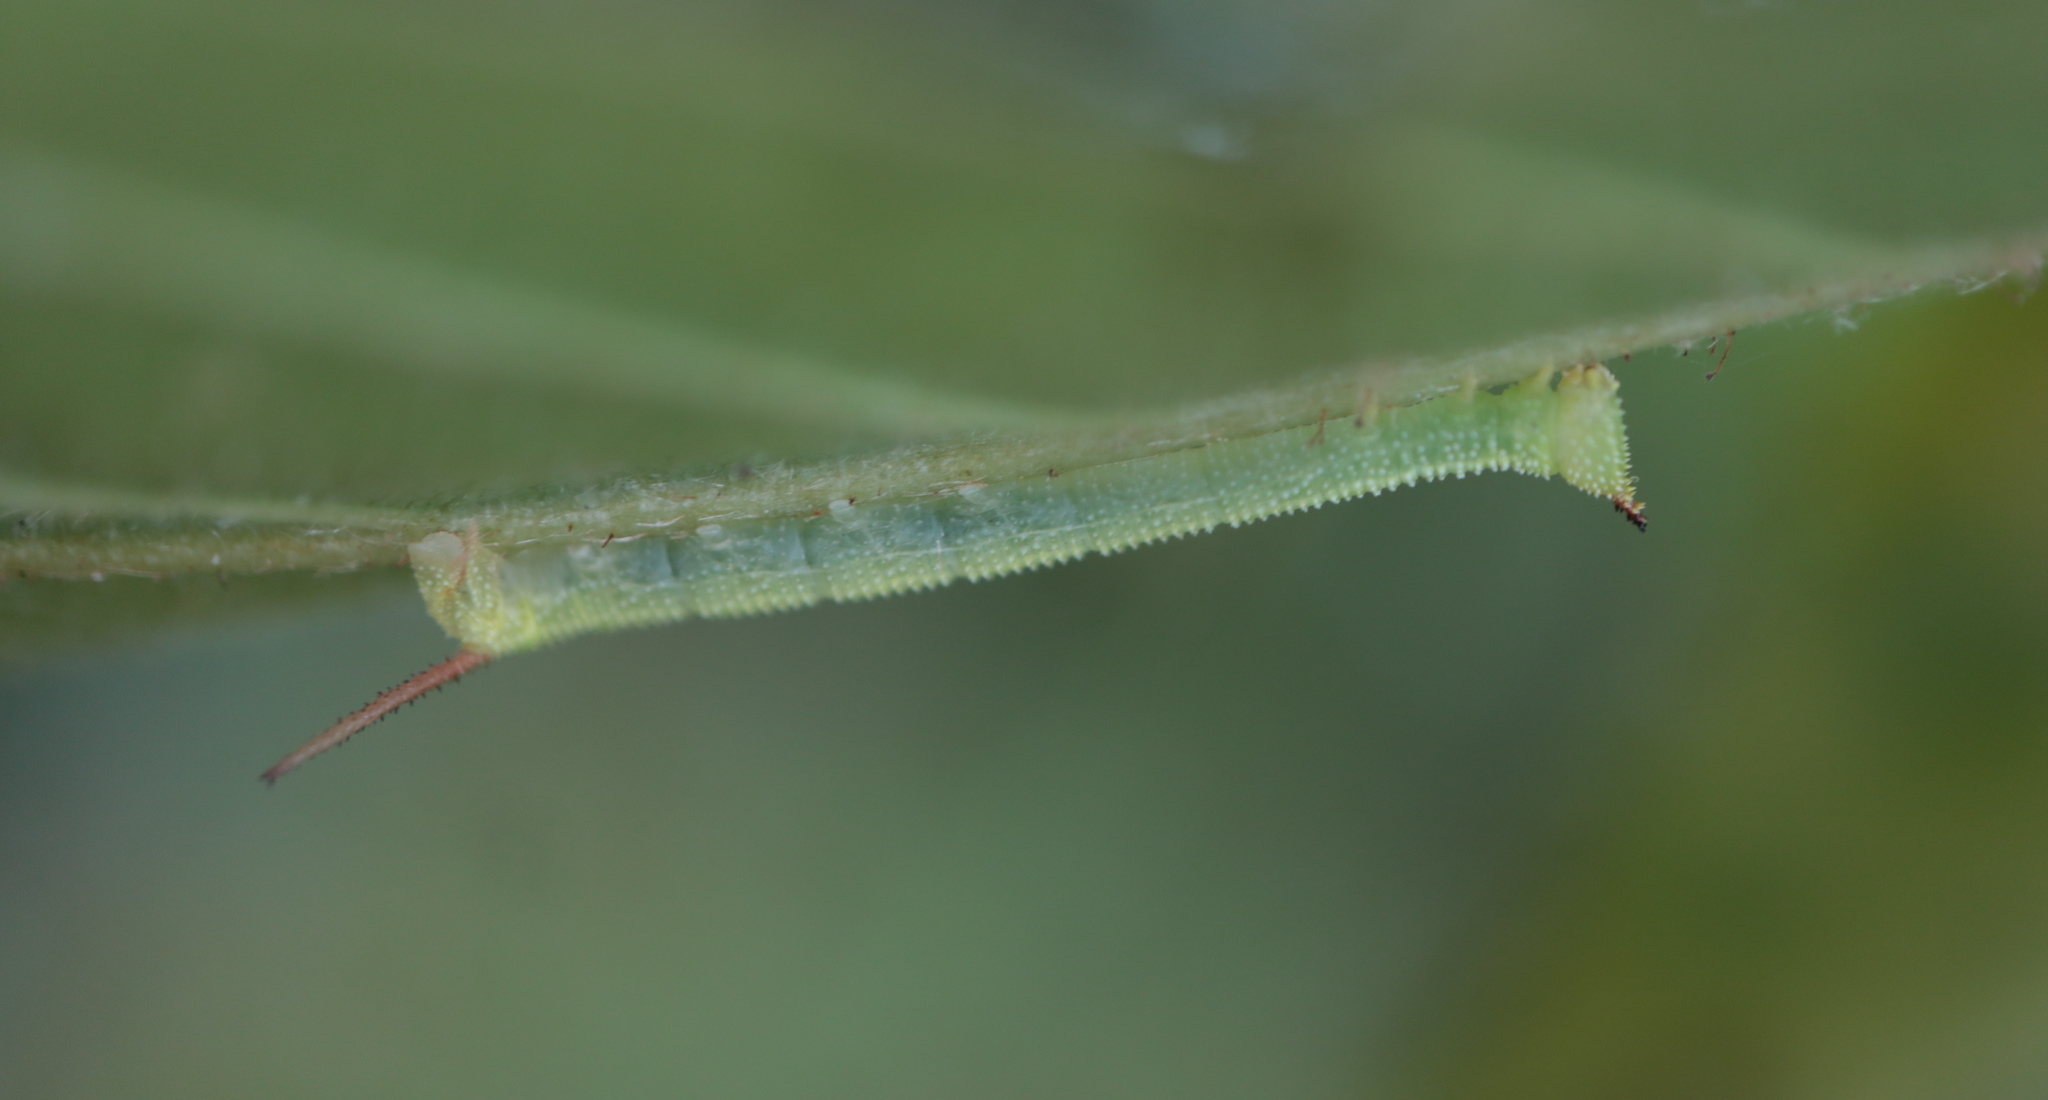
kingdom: Animalia
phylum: Arthropoda
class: Insecta
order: Lepidoptera
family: Sphingidae
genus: Amorpha
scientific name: Amorpha juglandis
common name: Walnut sphinx
